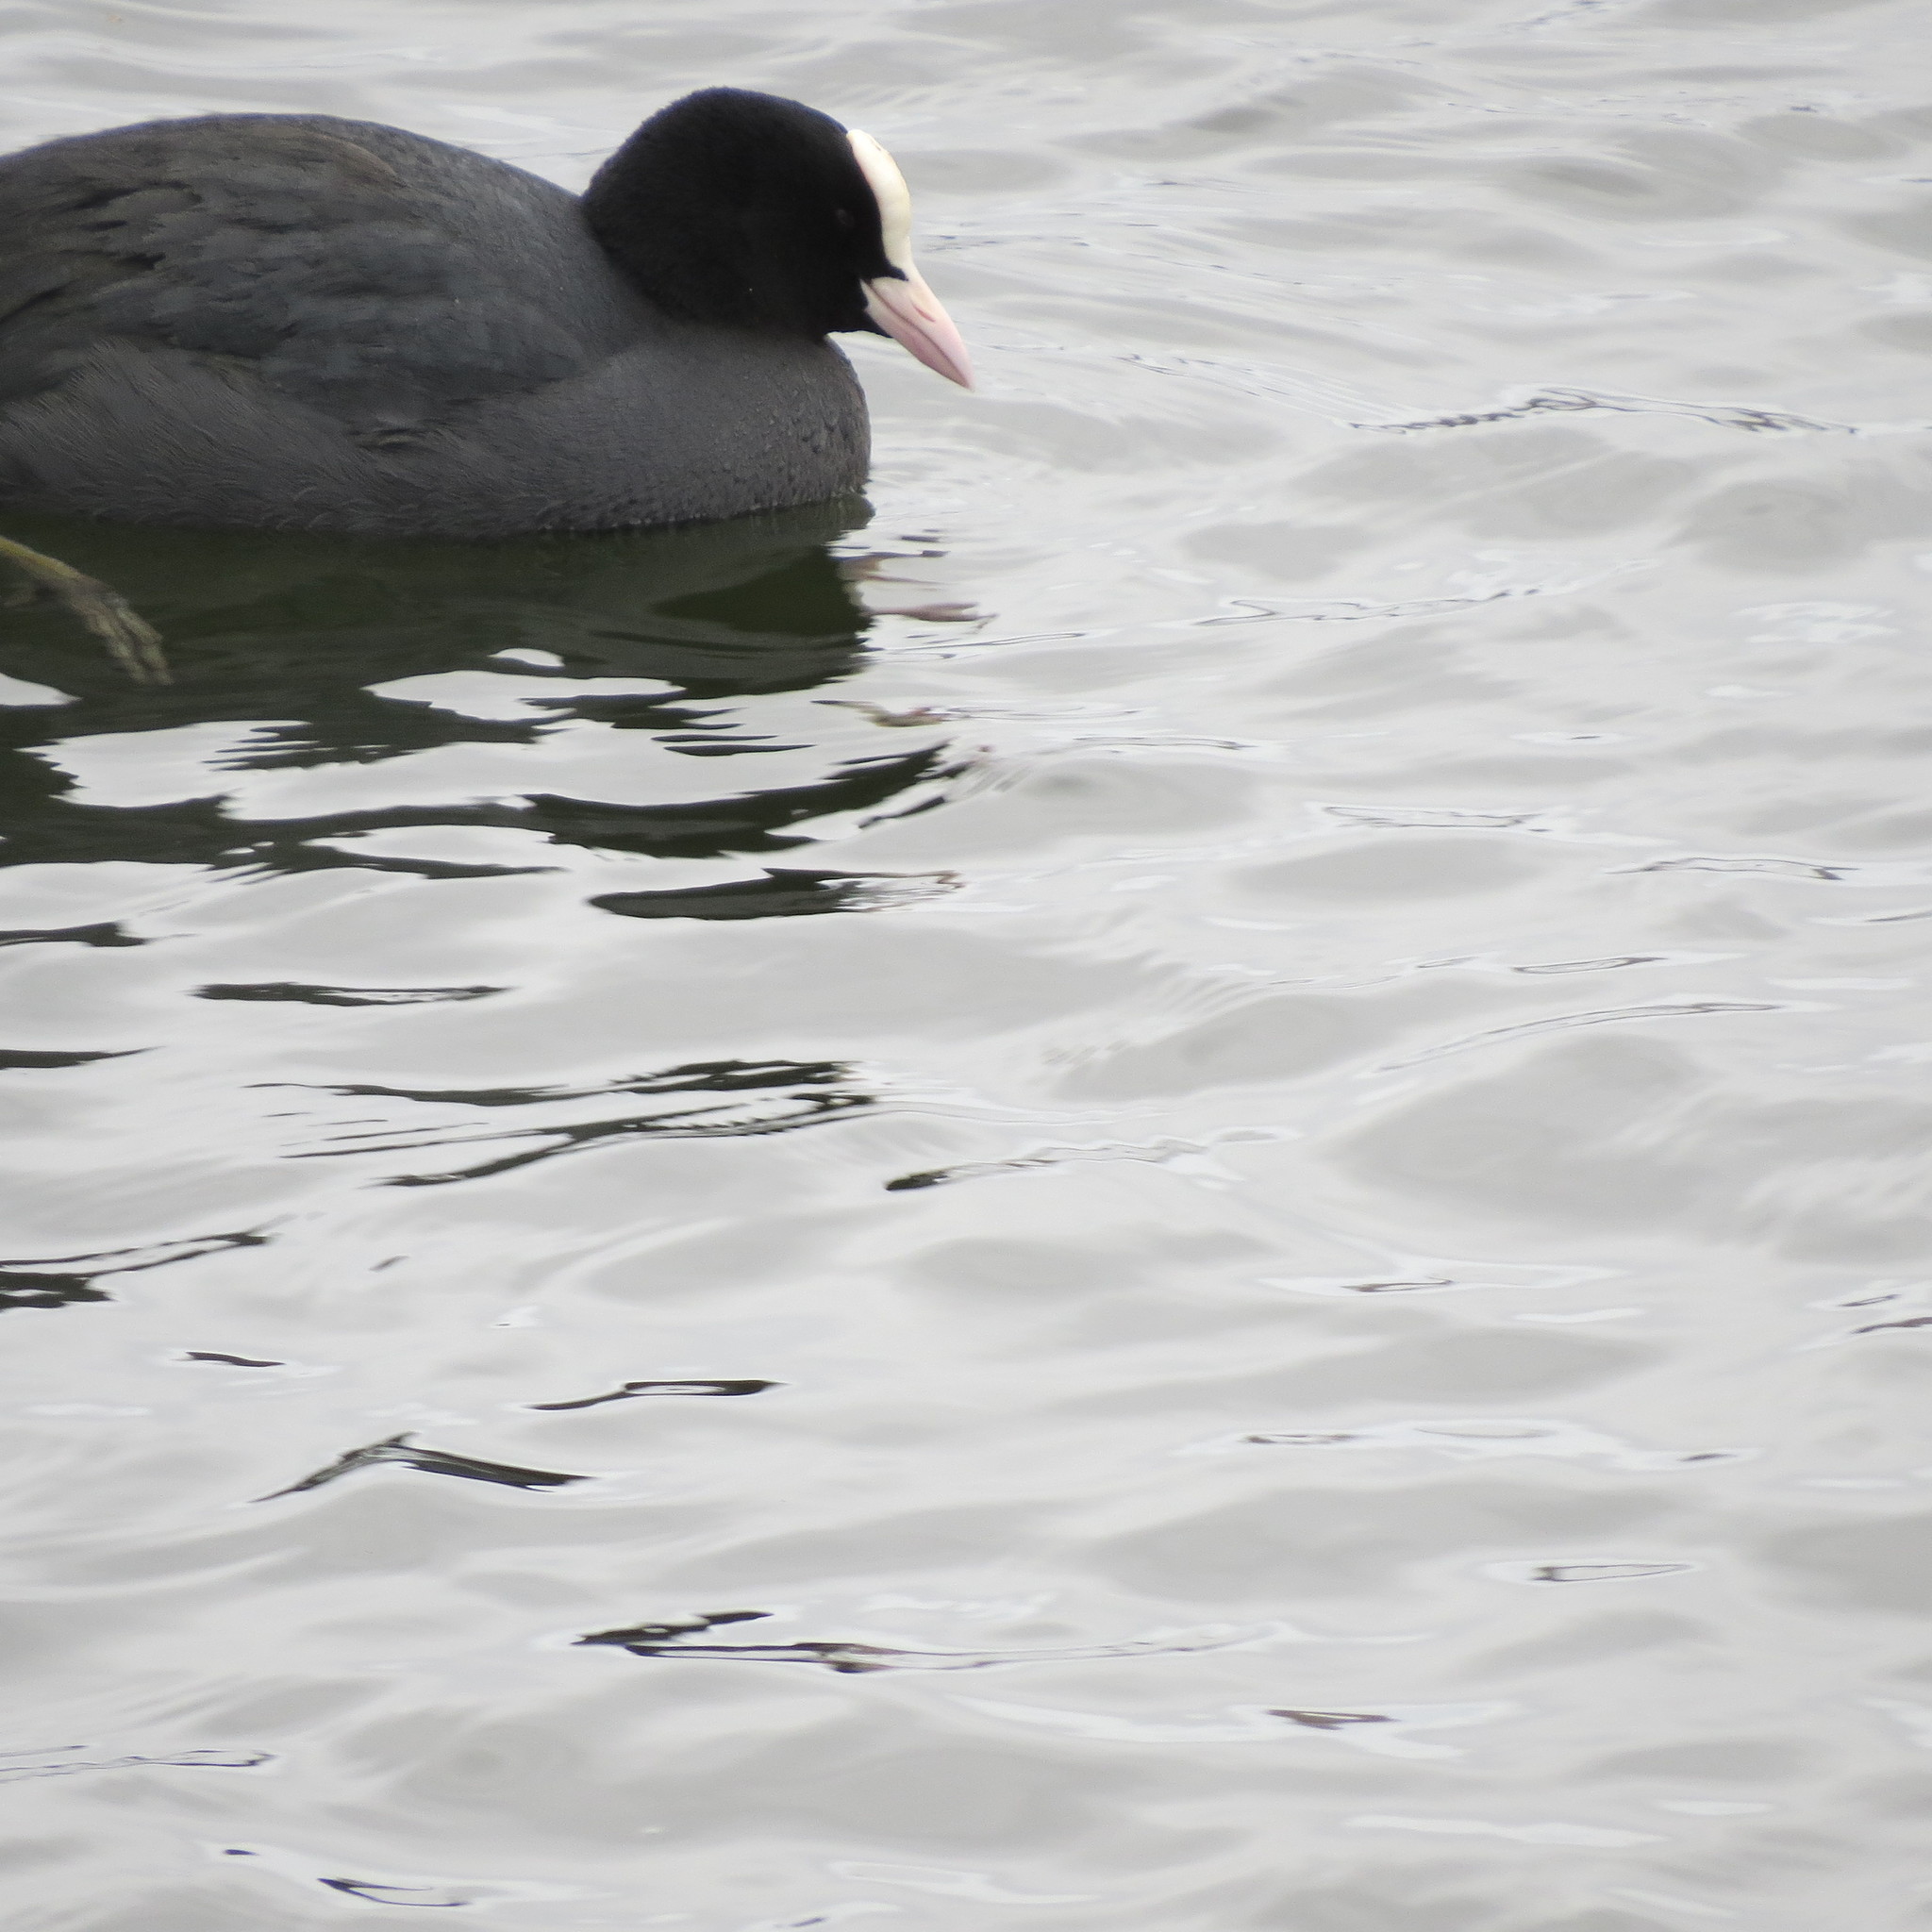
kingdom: Animalia
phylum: Chordata
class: Aves
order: Gruiformes
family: Rallidae
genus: Fulica
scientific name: Fulica atra
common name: Eurasian coot
